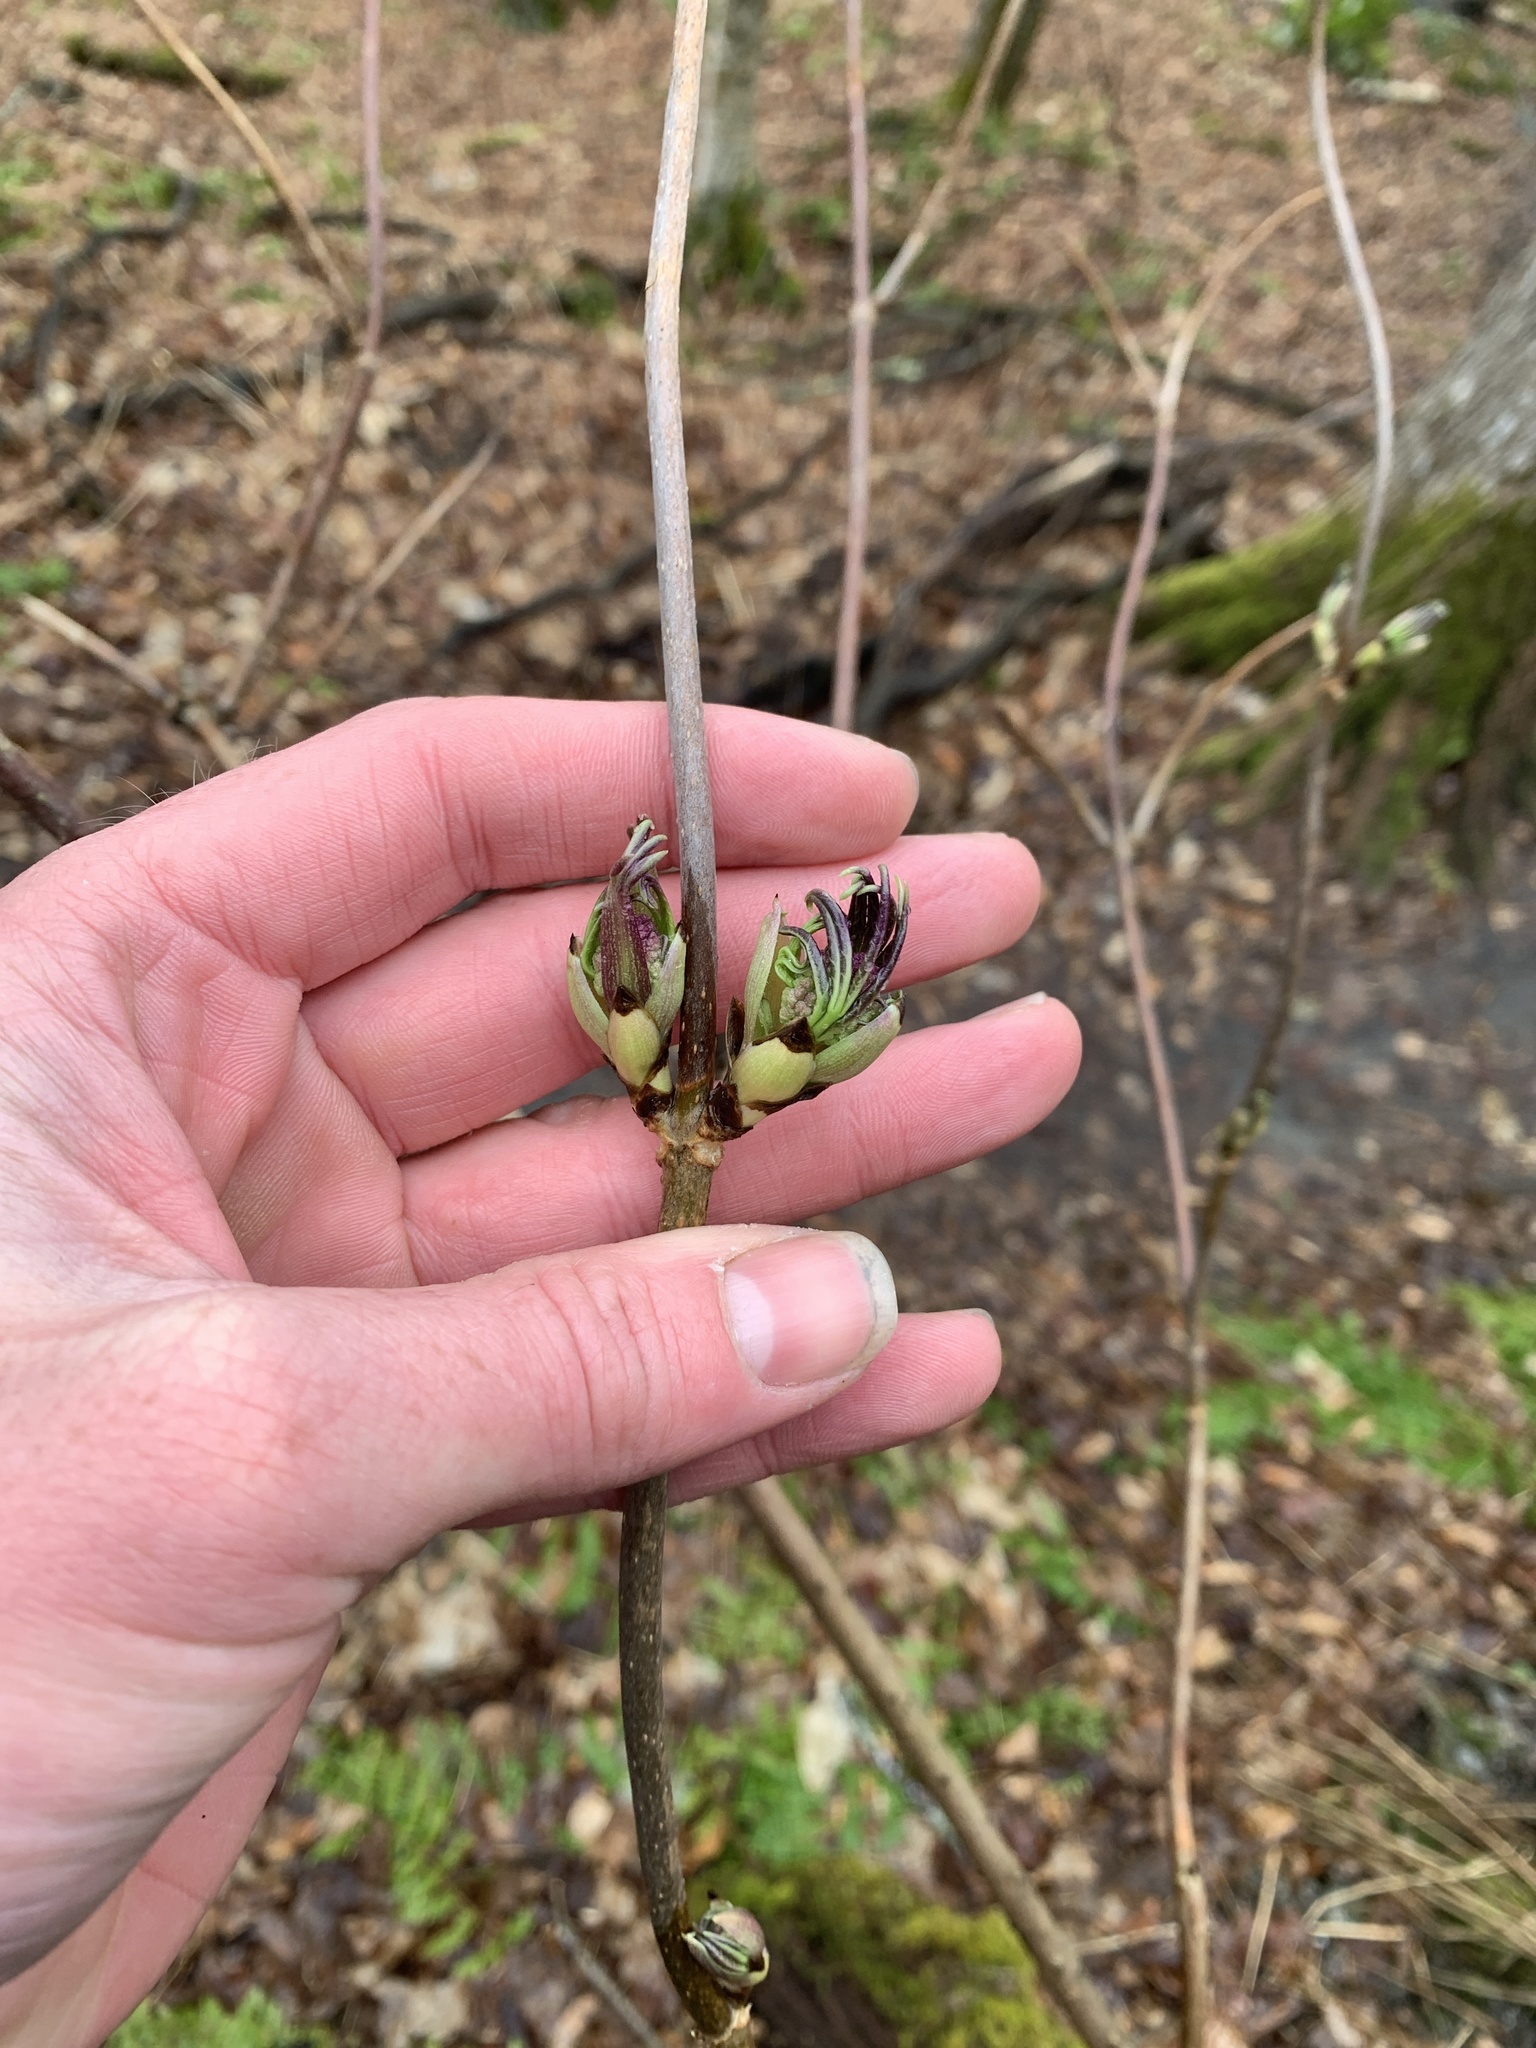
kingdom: Plantae
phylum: Tracheophyta
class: Magnoliopsida
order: Dipsacales
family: Viburnaceae
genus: Sambucus
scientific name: Sambucus racemosa
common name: Red-berried elder
